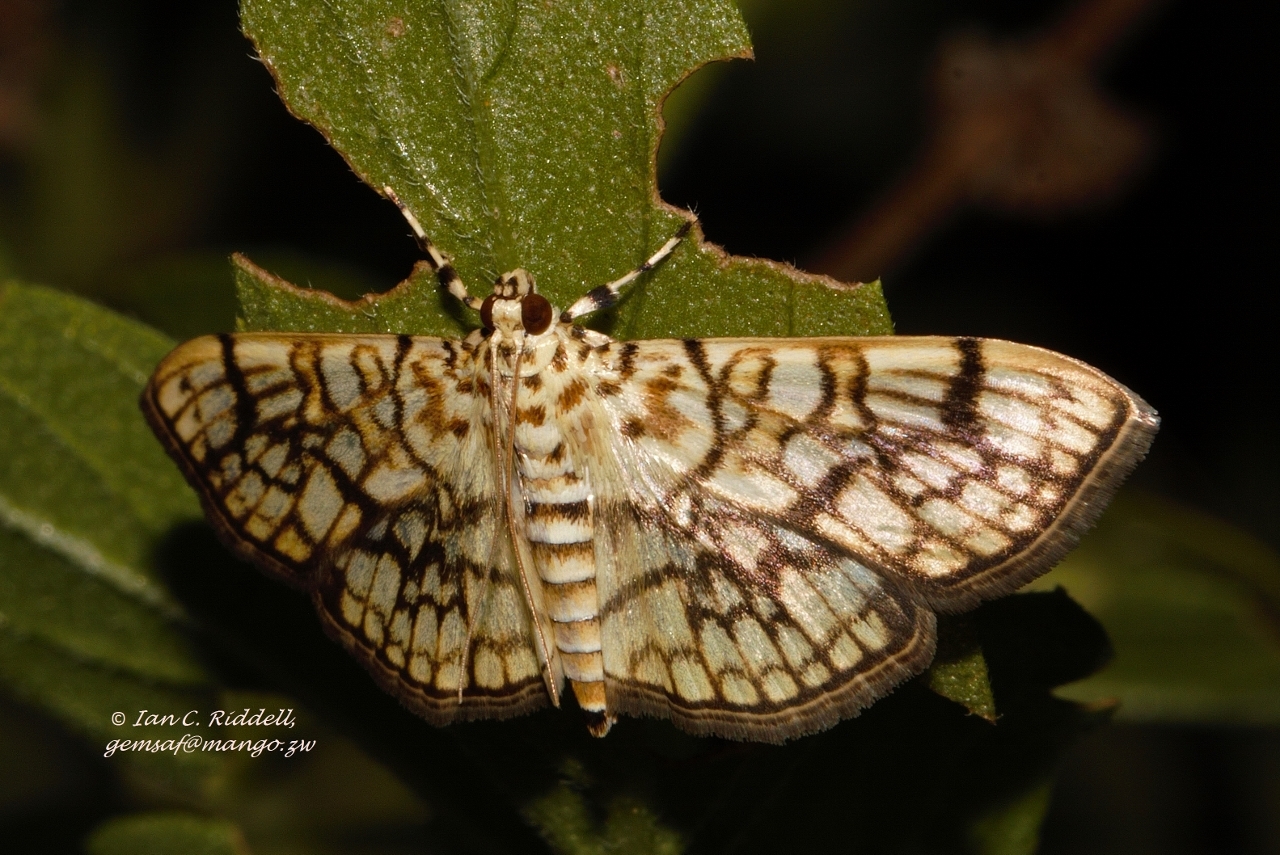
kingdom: Animalia
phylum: Arthropoda
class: Insecta
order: Lepidoptera
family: Crambidae
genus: Haritalodes
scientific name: Haritalodes derogata
